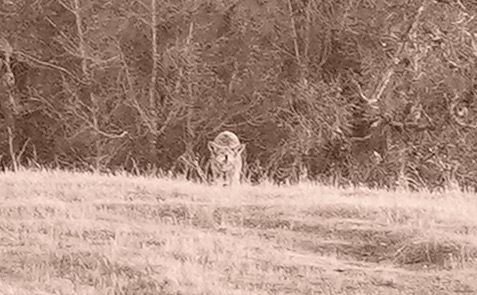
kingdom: Animalia
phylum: Chordata
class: Mammalia
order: Carnivora
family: Canidae
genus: Canis
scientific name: Canis latrans
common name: Coyote
